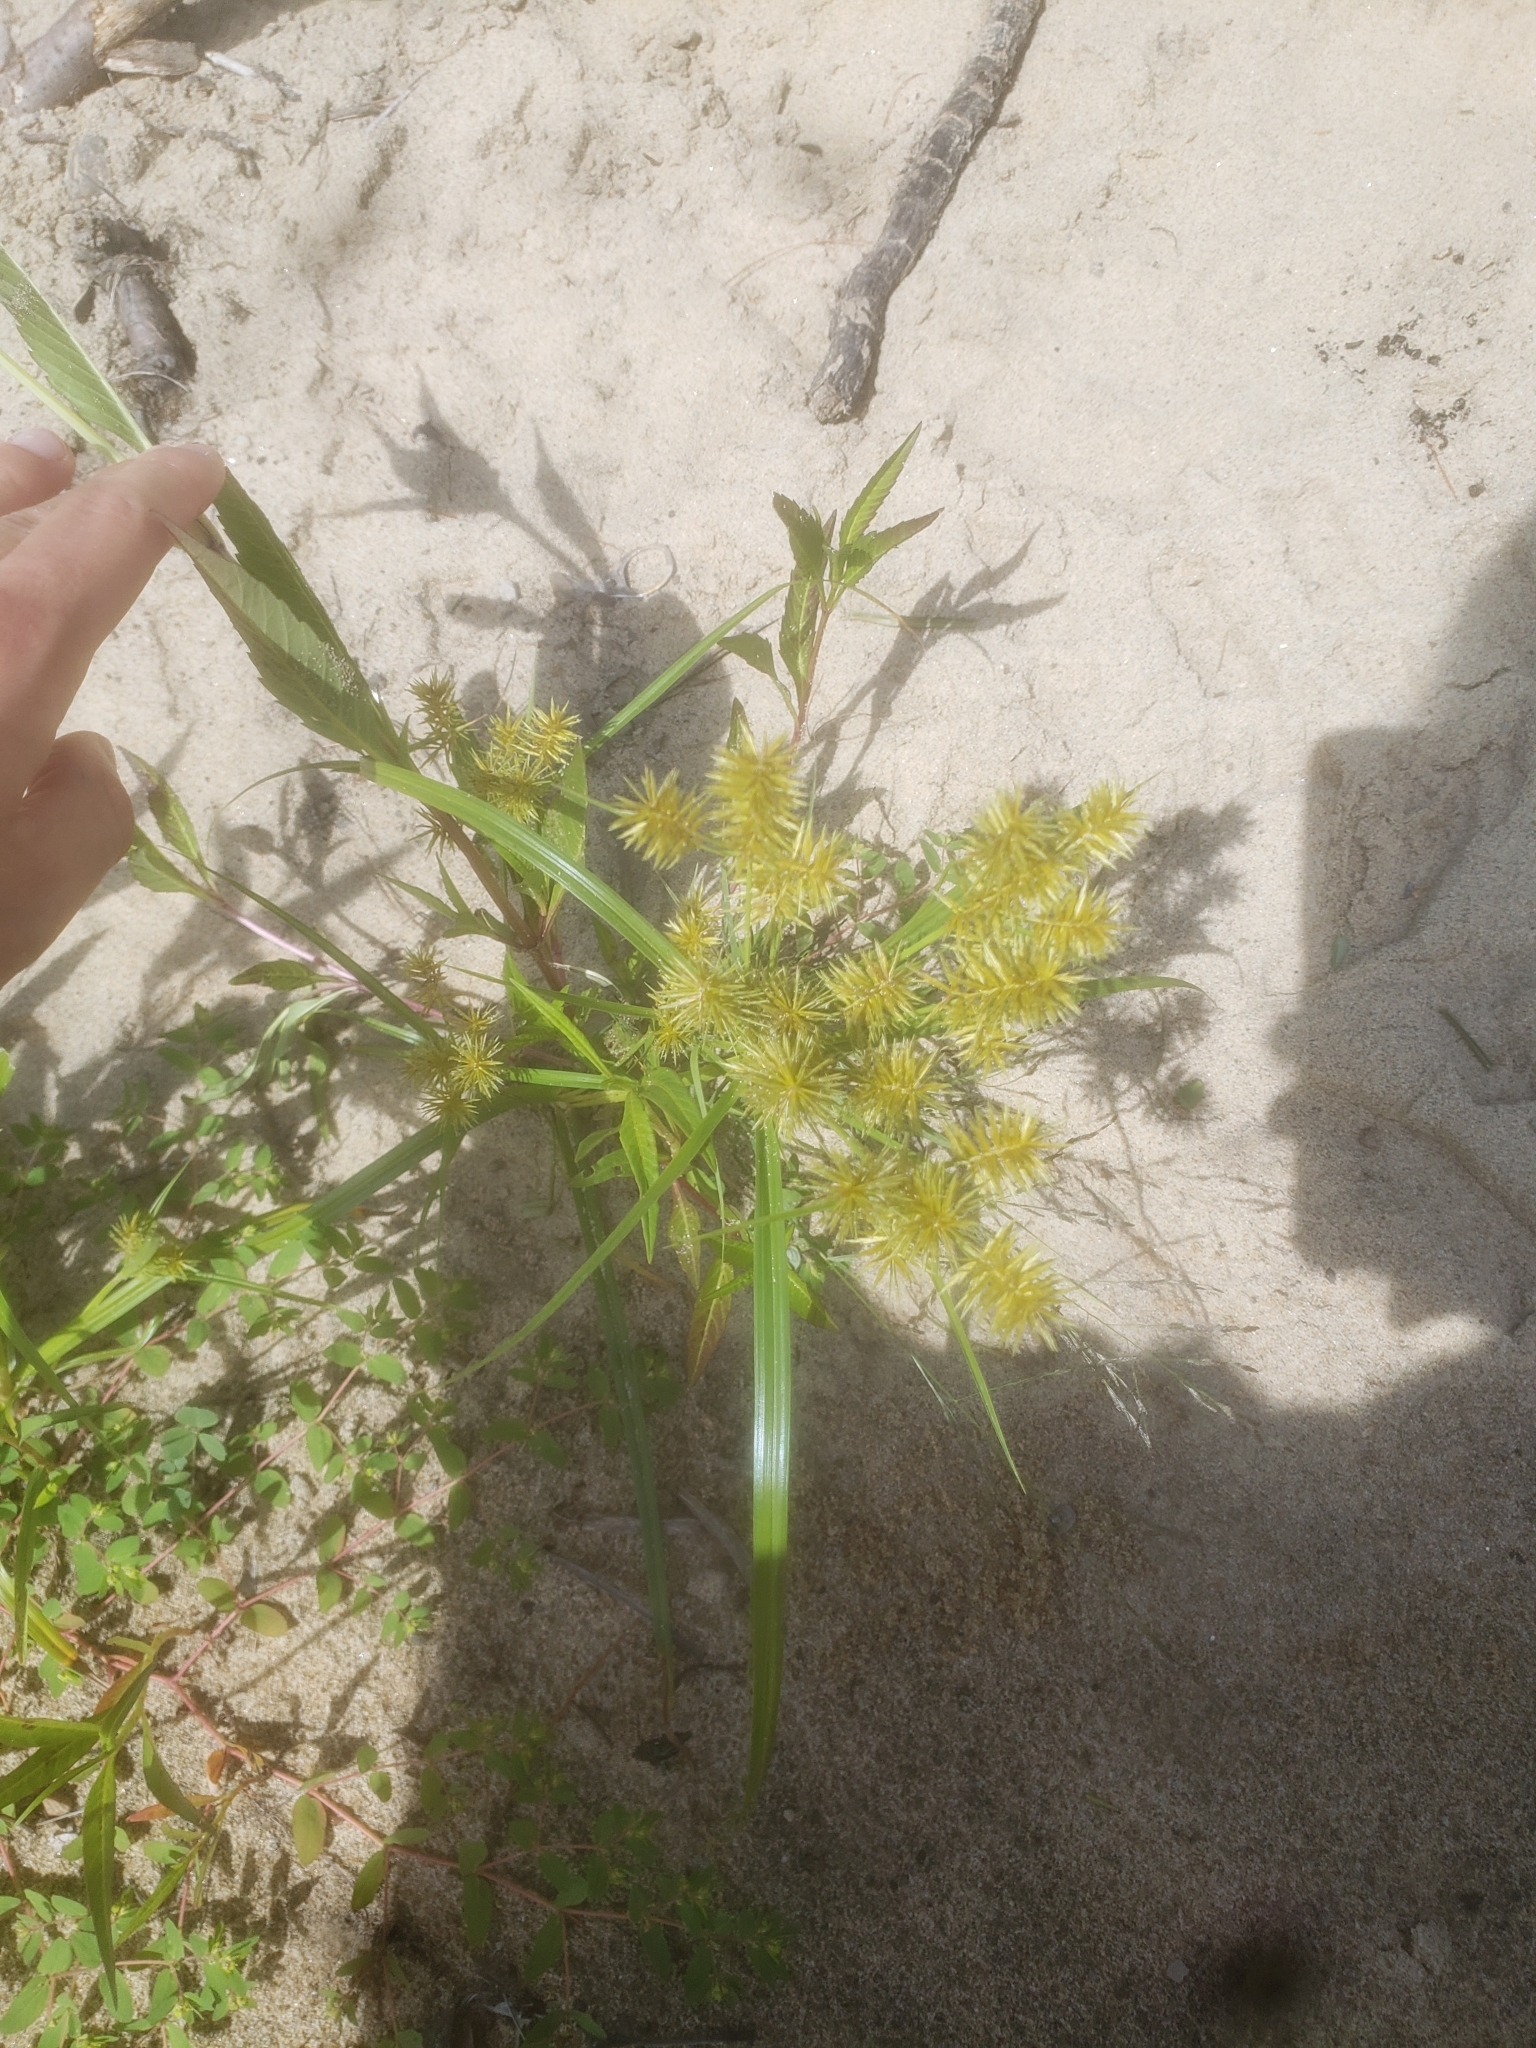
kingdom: Plantae
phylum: Tracheophyta
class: Liliopsida
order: Poales
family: Cyperaceae
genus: Cyperus
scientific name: Cyperus strigosus
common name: False nutsedge
